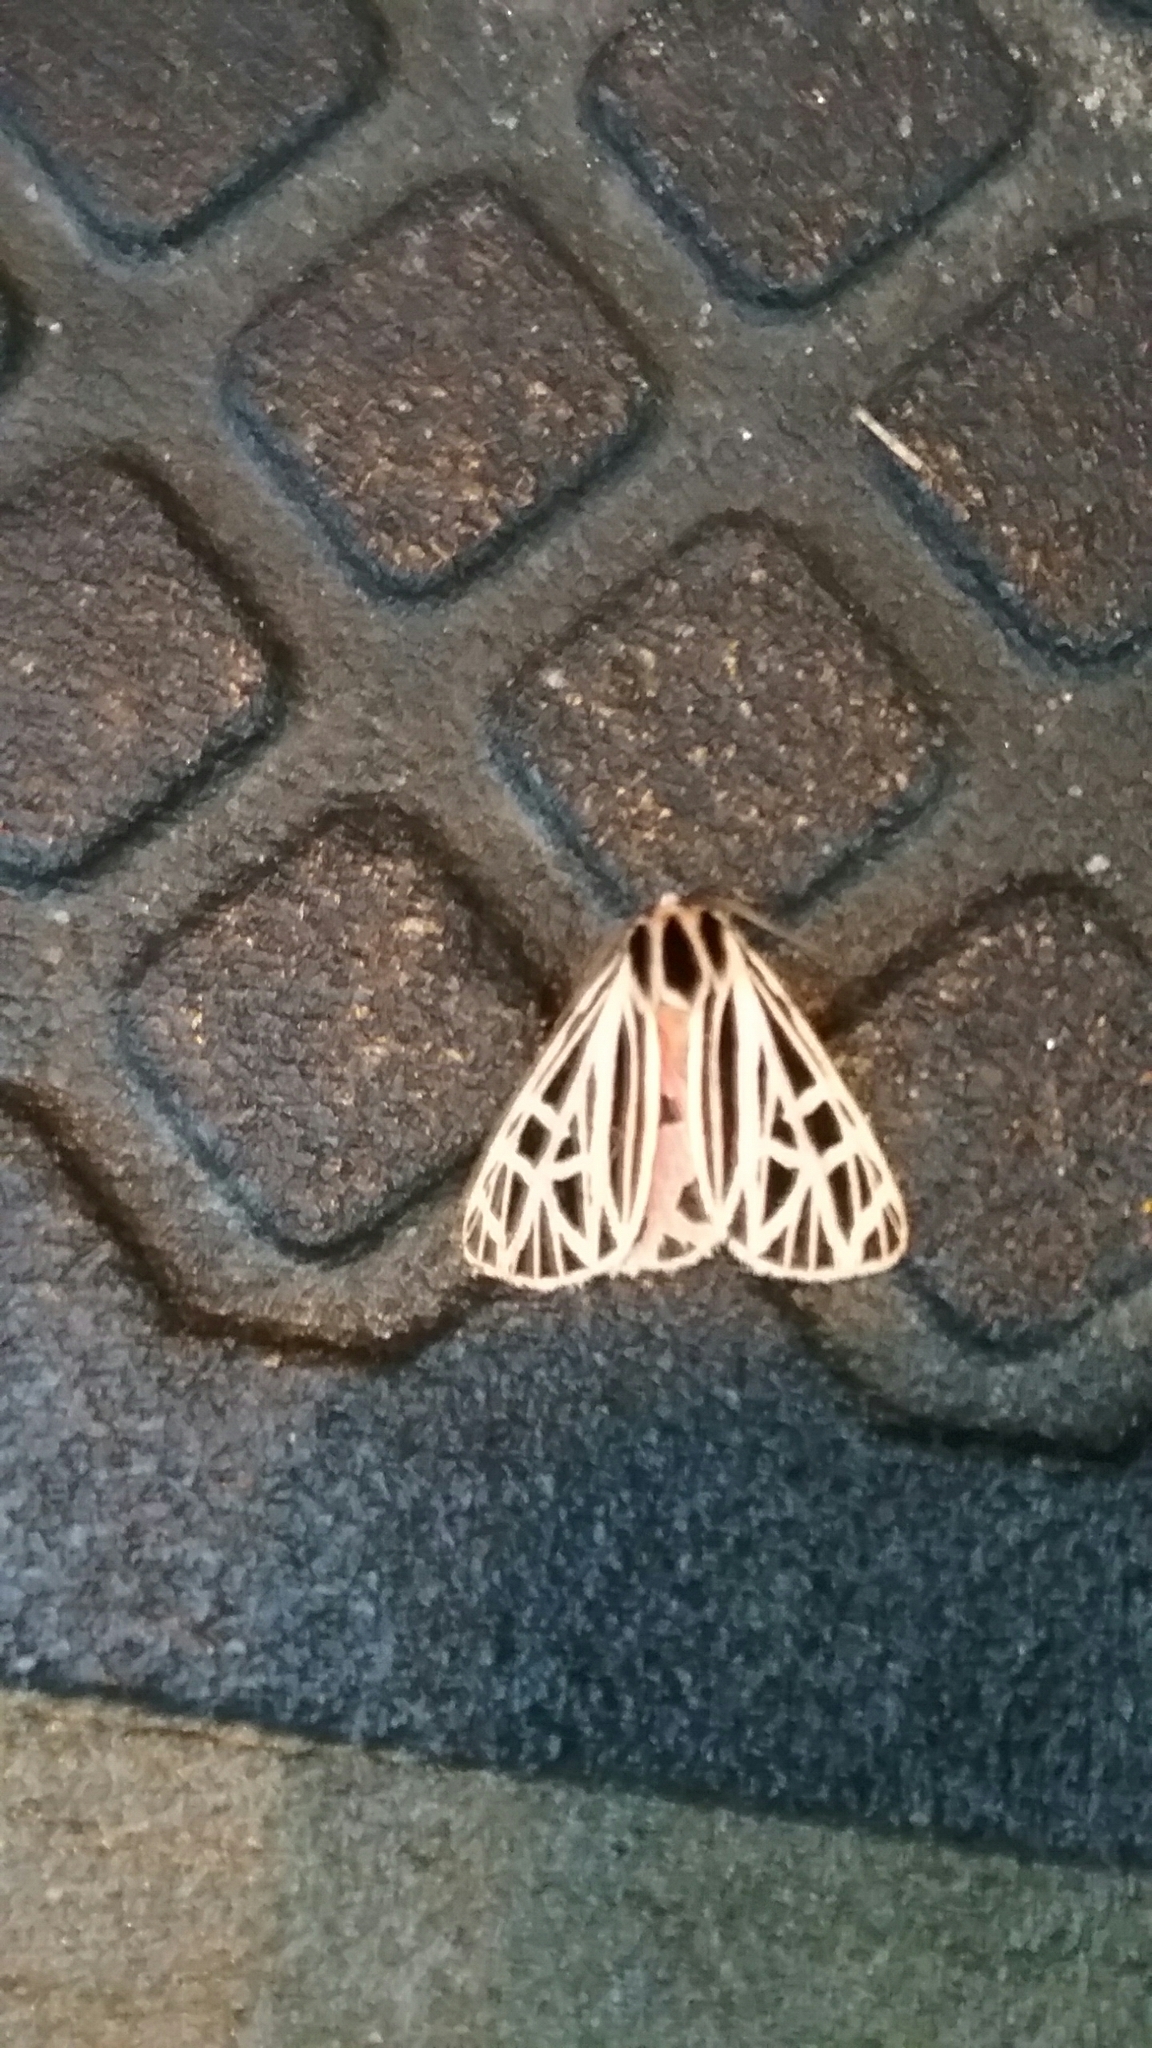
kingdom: Animalia
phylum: Arthropoda
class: Insecta
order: Lepidoptera
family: Erebidae
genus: Grammia
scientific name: Grammia virgo
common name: Virgin tiger moth
